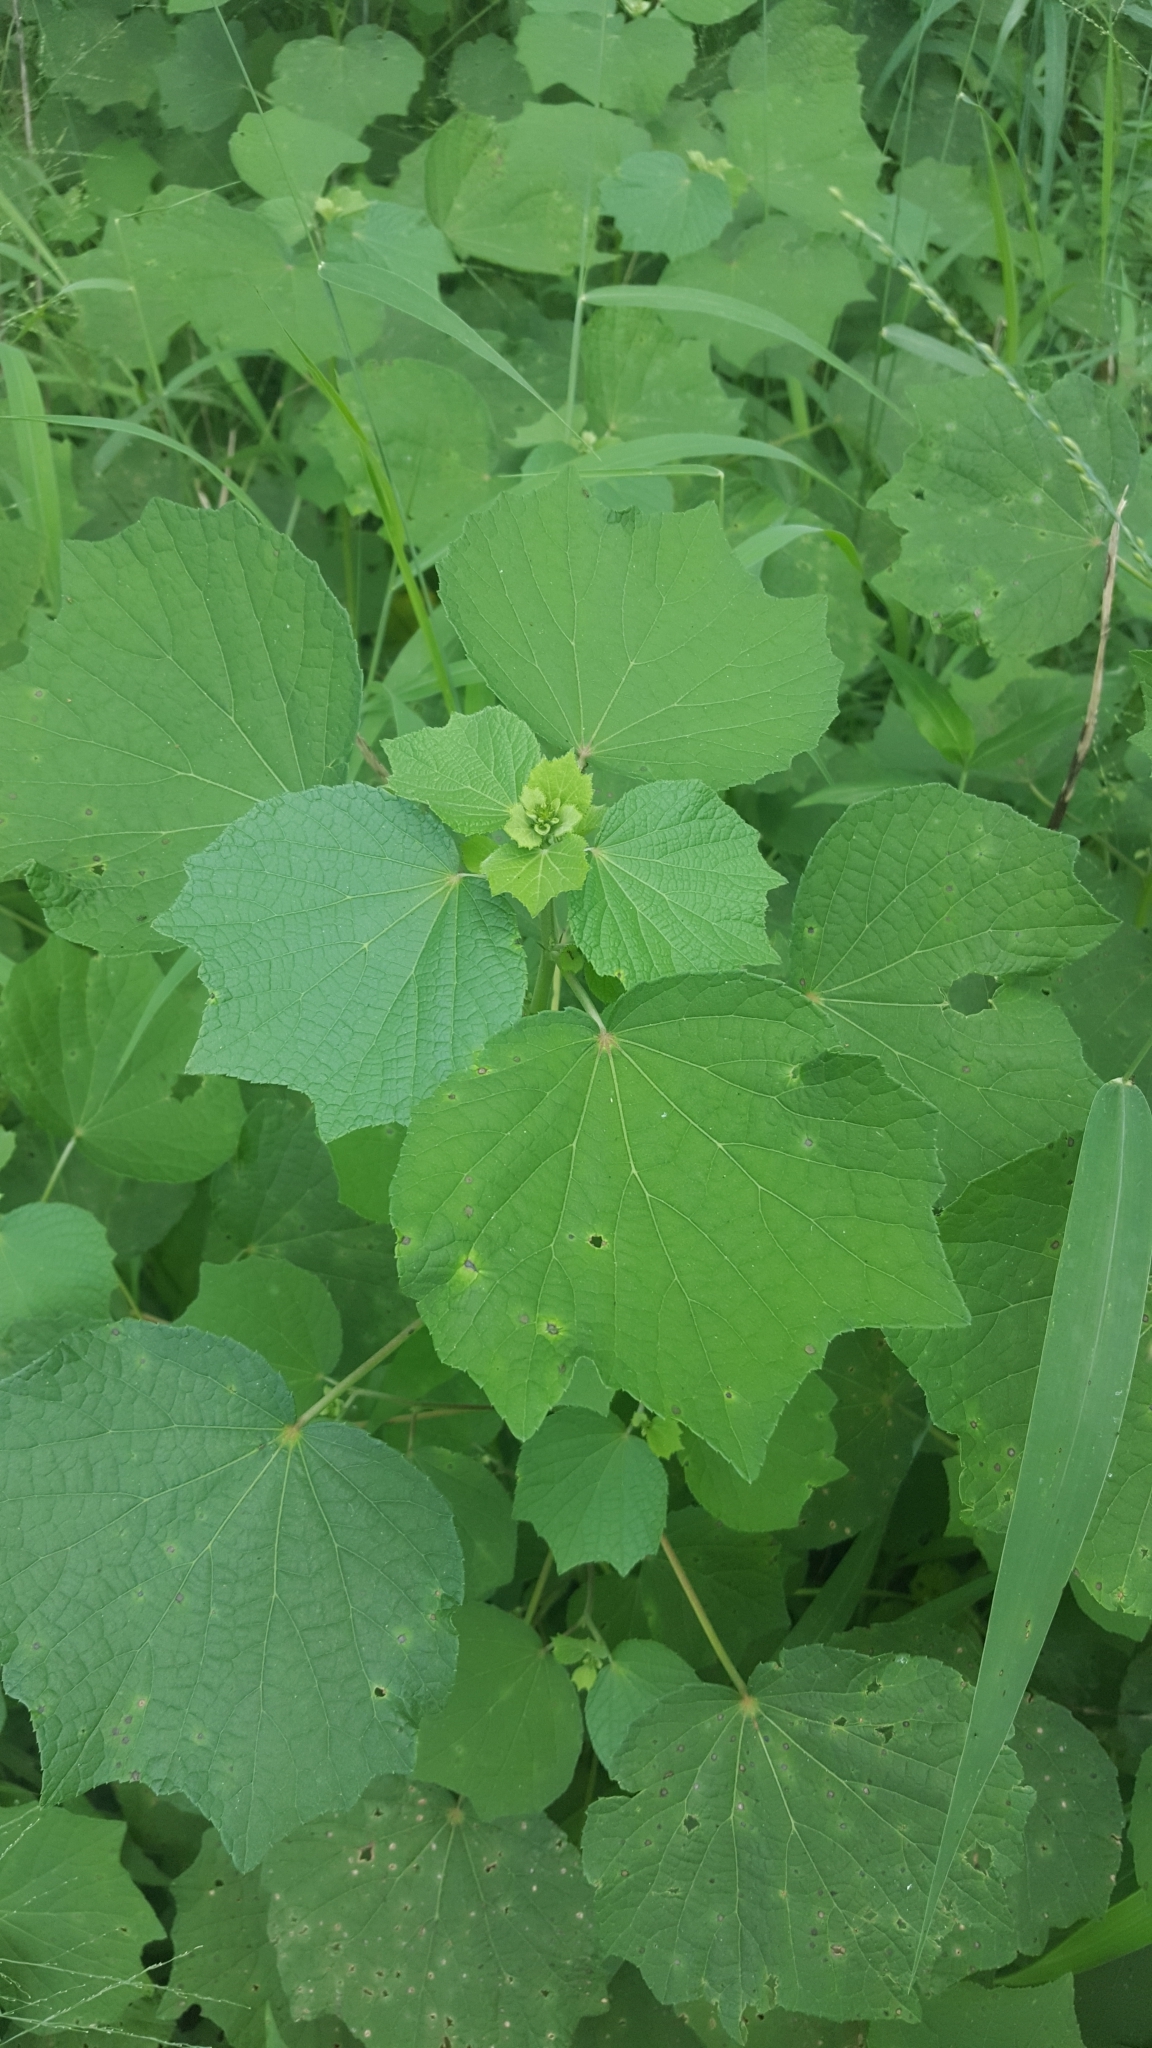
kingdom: Plantae
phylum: Tracheophyta
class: Magnoliopsida
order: Malvales
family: Malvaceae
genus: Urena
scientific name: Urena lobata
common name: Caesarweed
